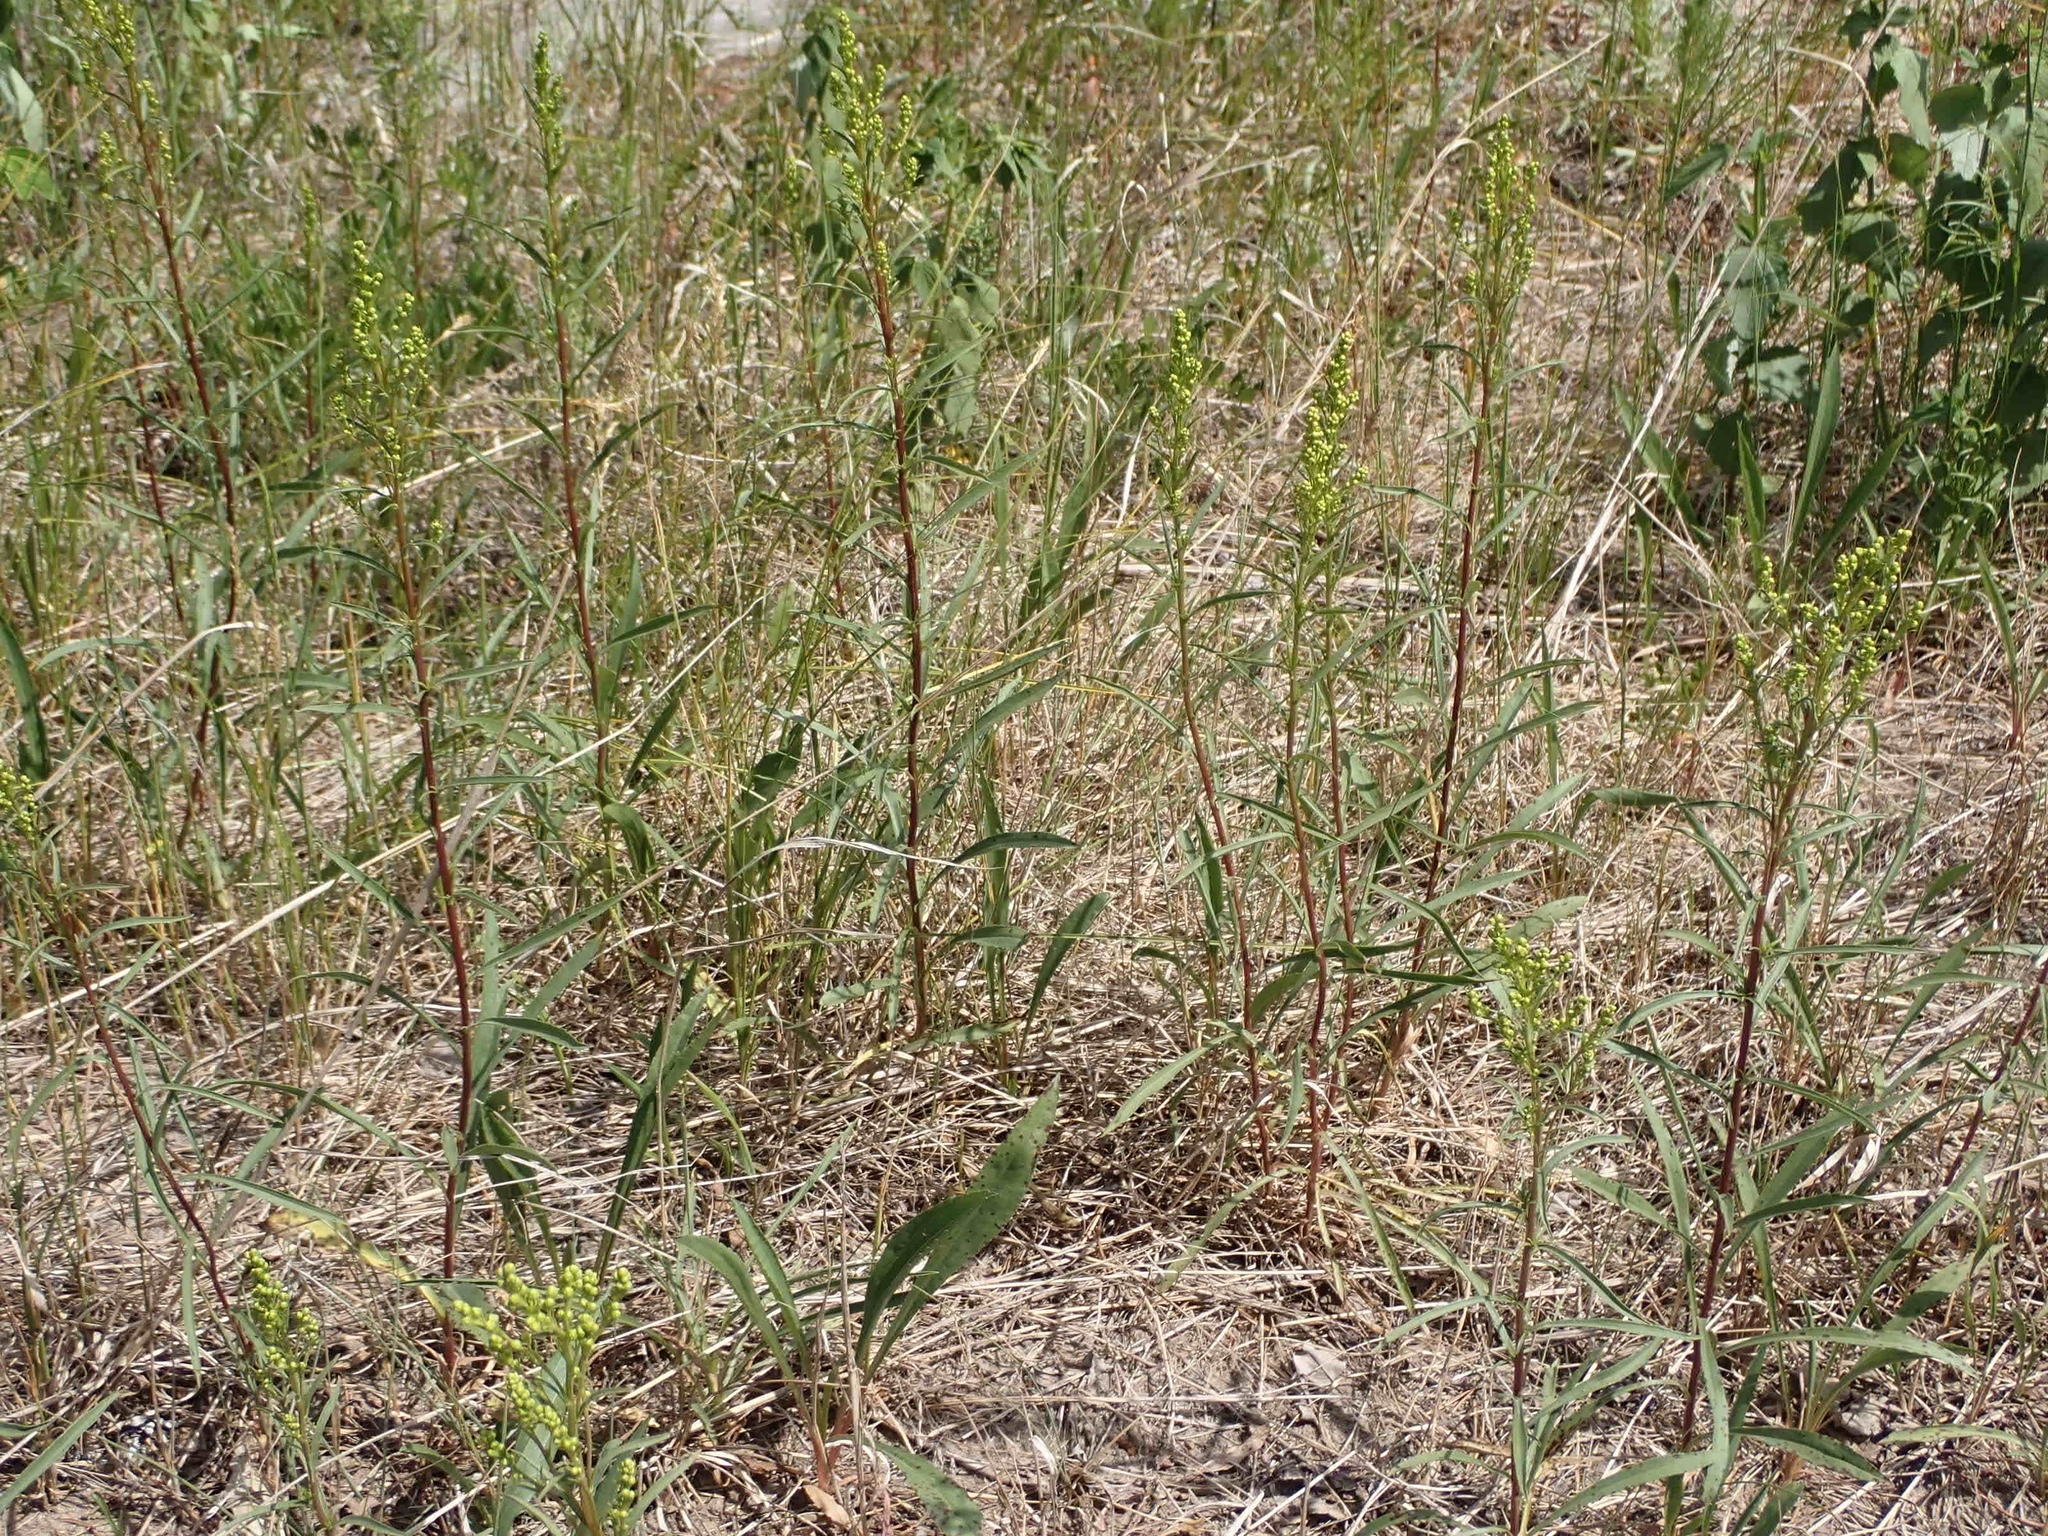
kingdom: Plantae
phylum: Tracheophyta
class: Magnoliopsida
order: Asterales
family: Asteraceae
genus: Solidago
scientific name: Solidago missouriensis
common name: Prairie goldenrod
